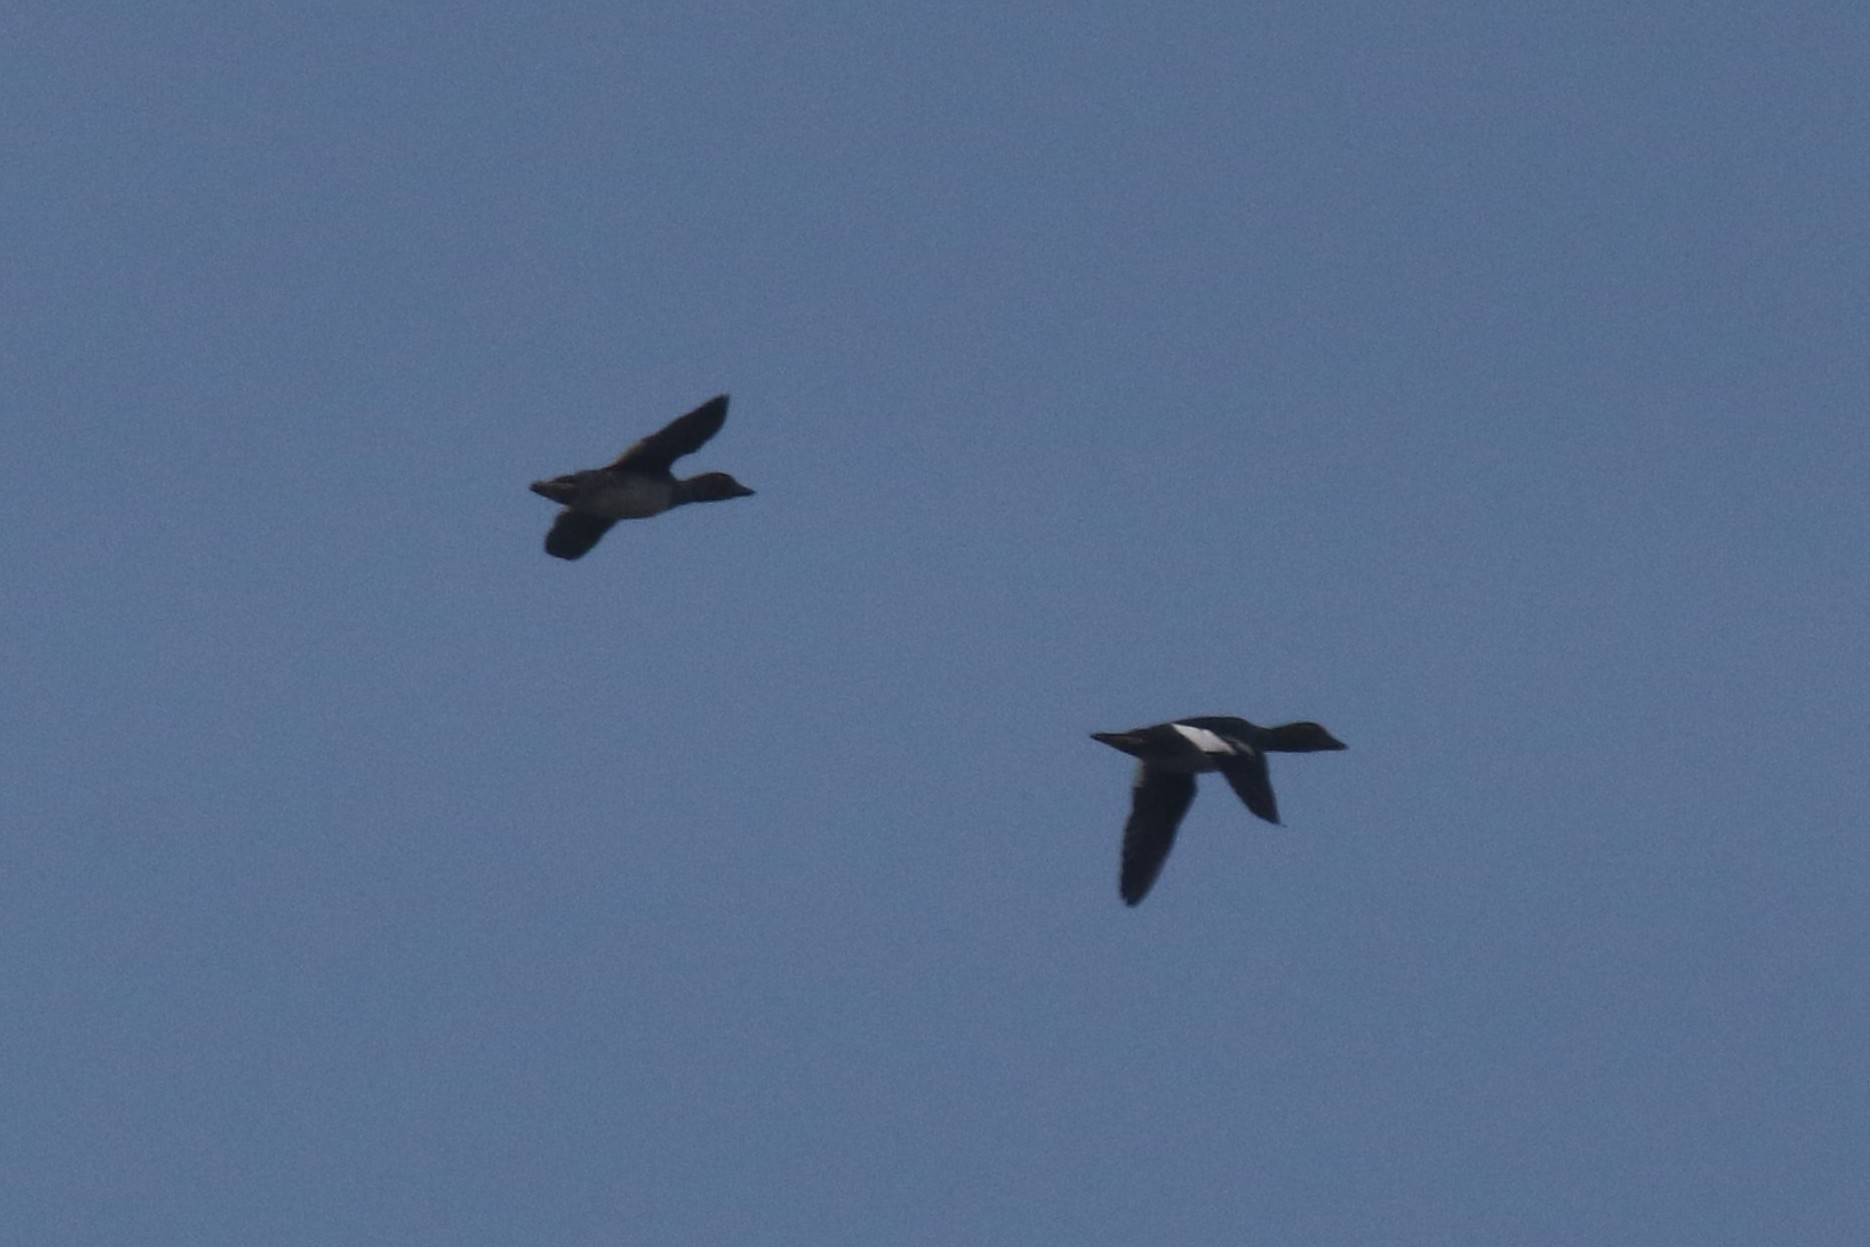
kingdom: Animalia
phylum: Chordata
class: Aves
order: Anseriformes
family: Anatidae
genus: Bucephala
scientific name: Bucephala clangula
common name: Common goldeneye
